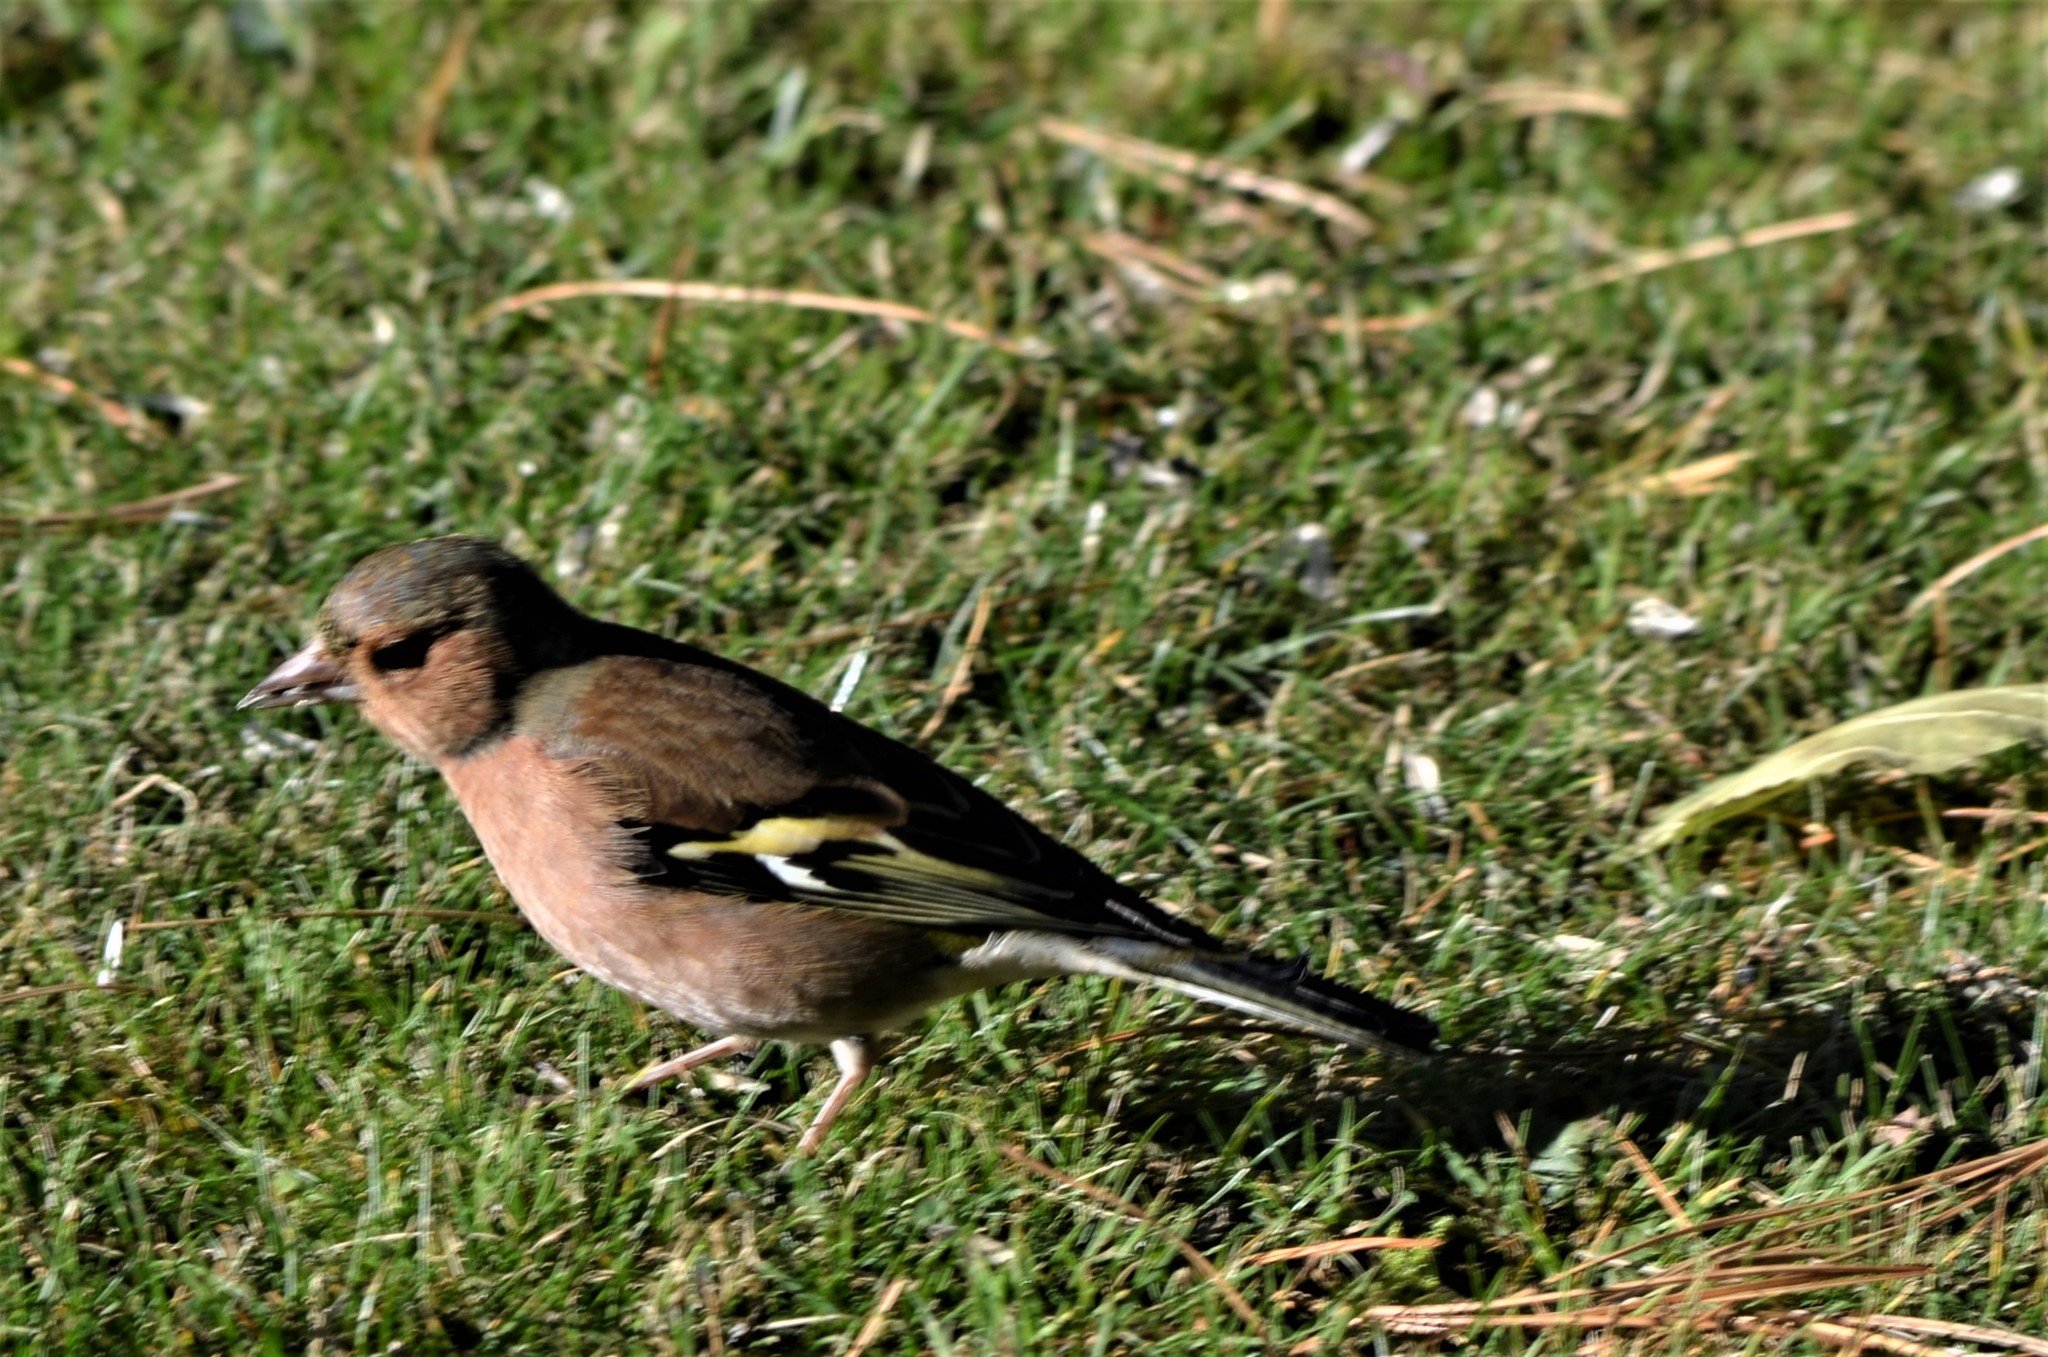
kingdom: Animalia
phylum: Chordata
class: Aves
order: Passeriformes
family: Fringillidae
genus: Fringilla
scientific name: Fringilla coelebs
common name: Common chaffinch
